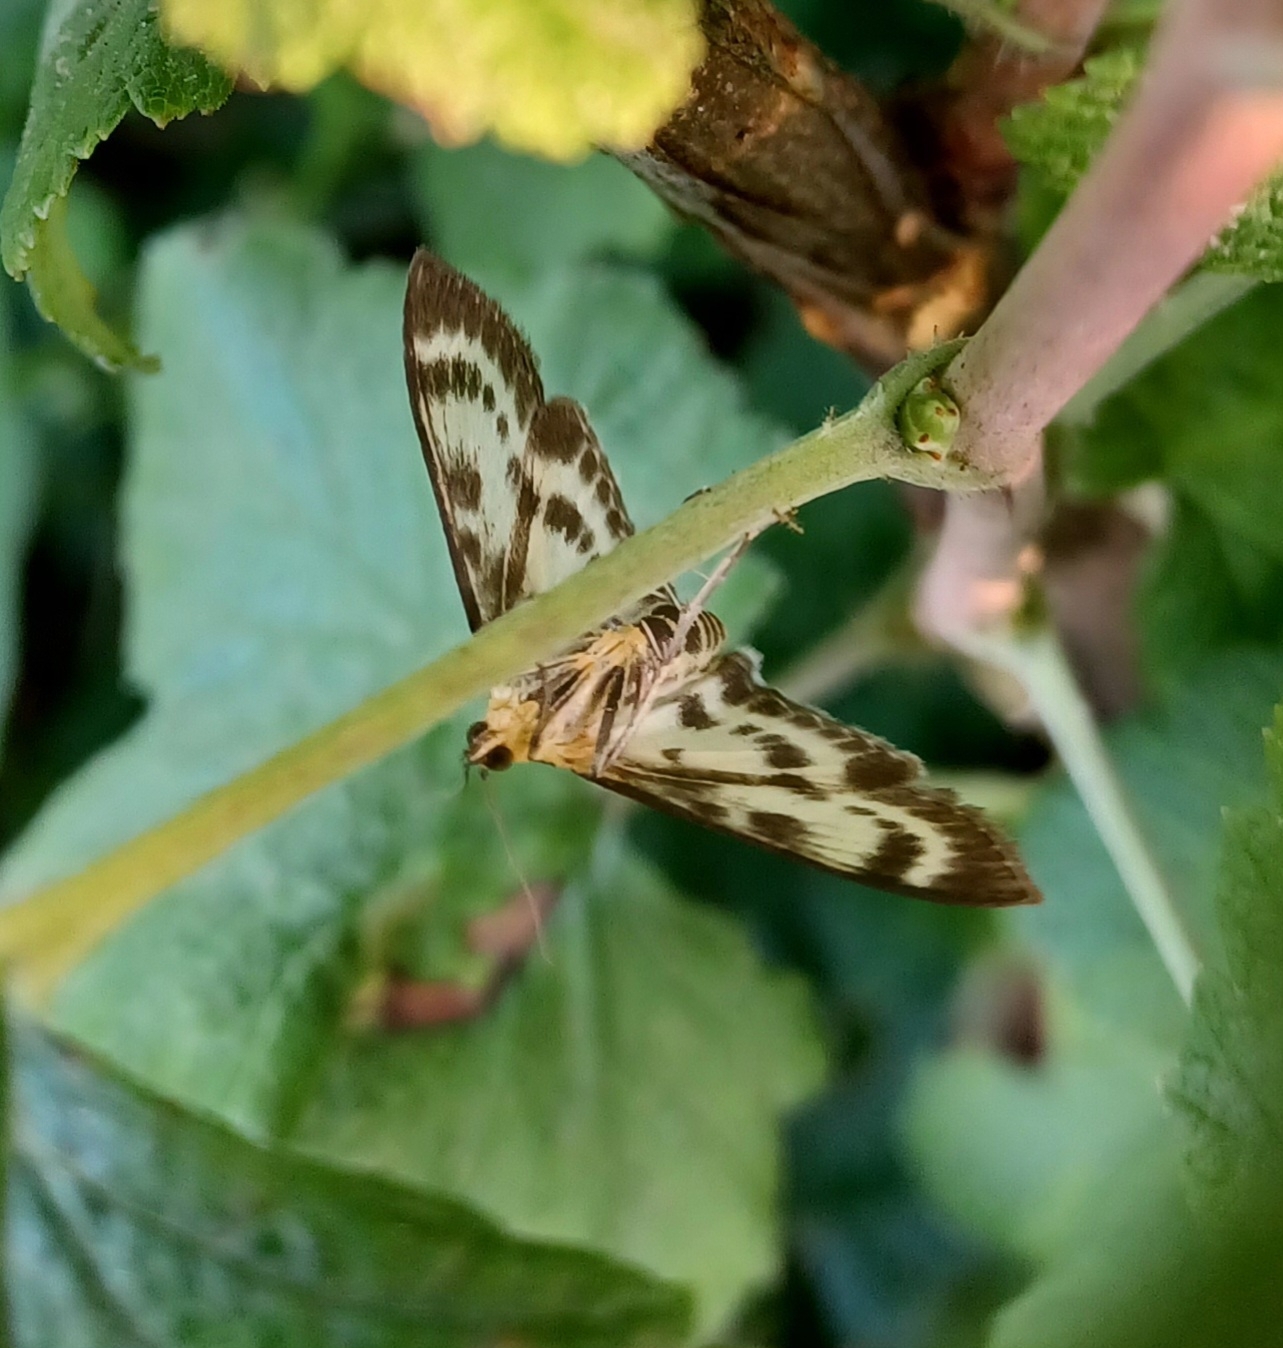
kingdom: Animalia
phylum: Arthropoda
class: Insecta
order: Lepidoptera
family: Crambidae
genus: Anania
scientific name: Anania hortulata
